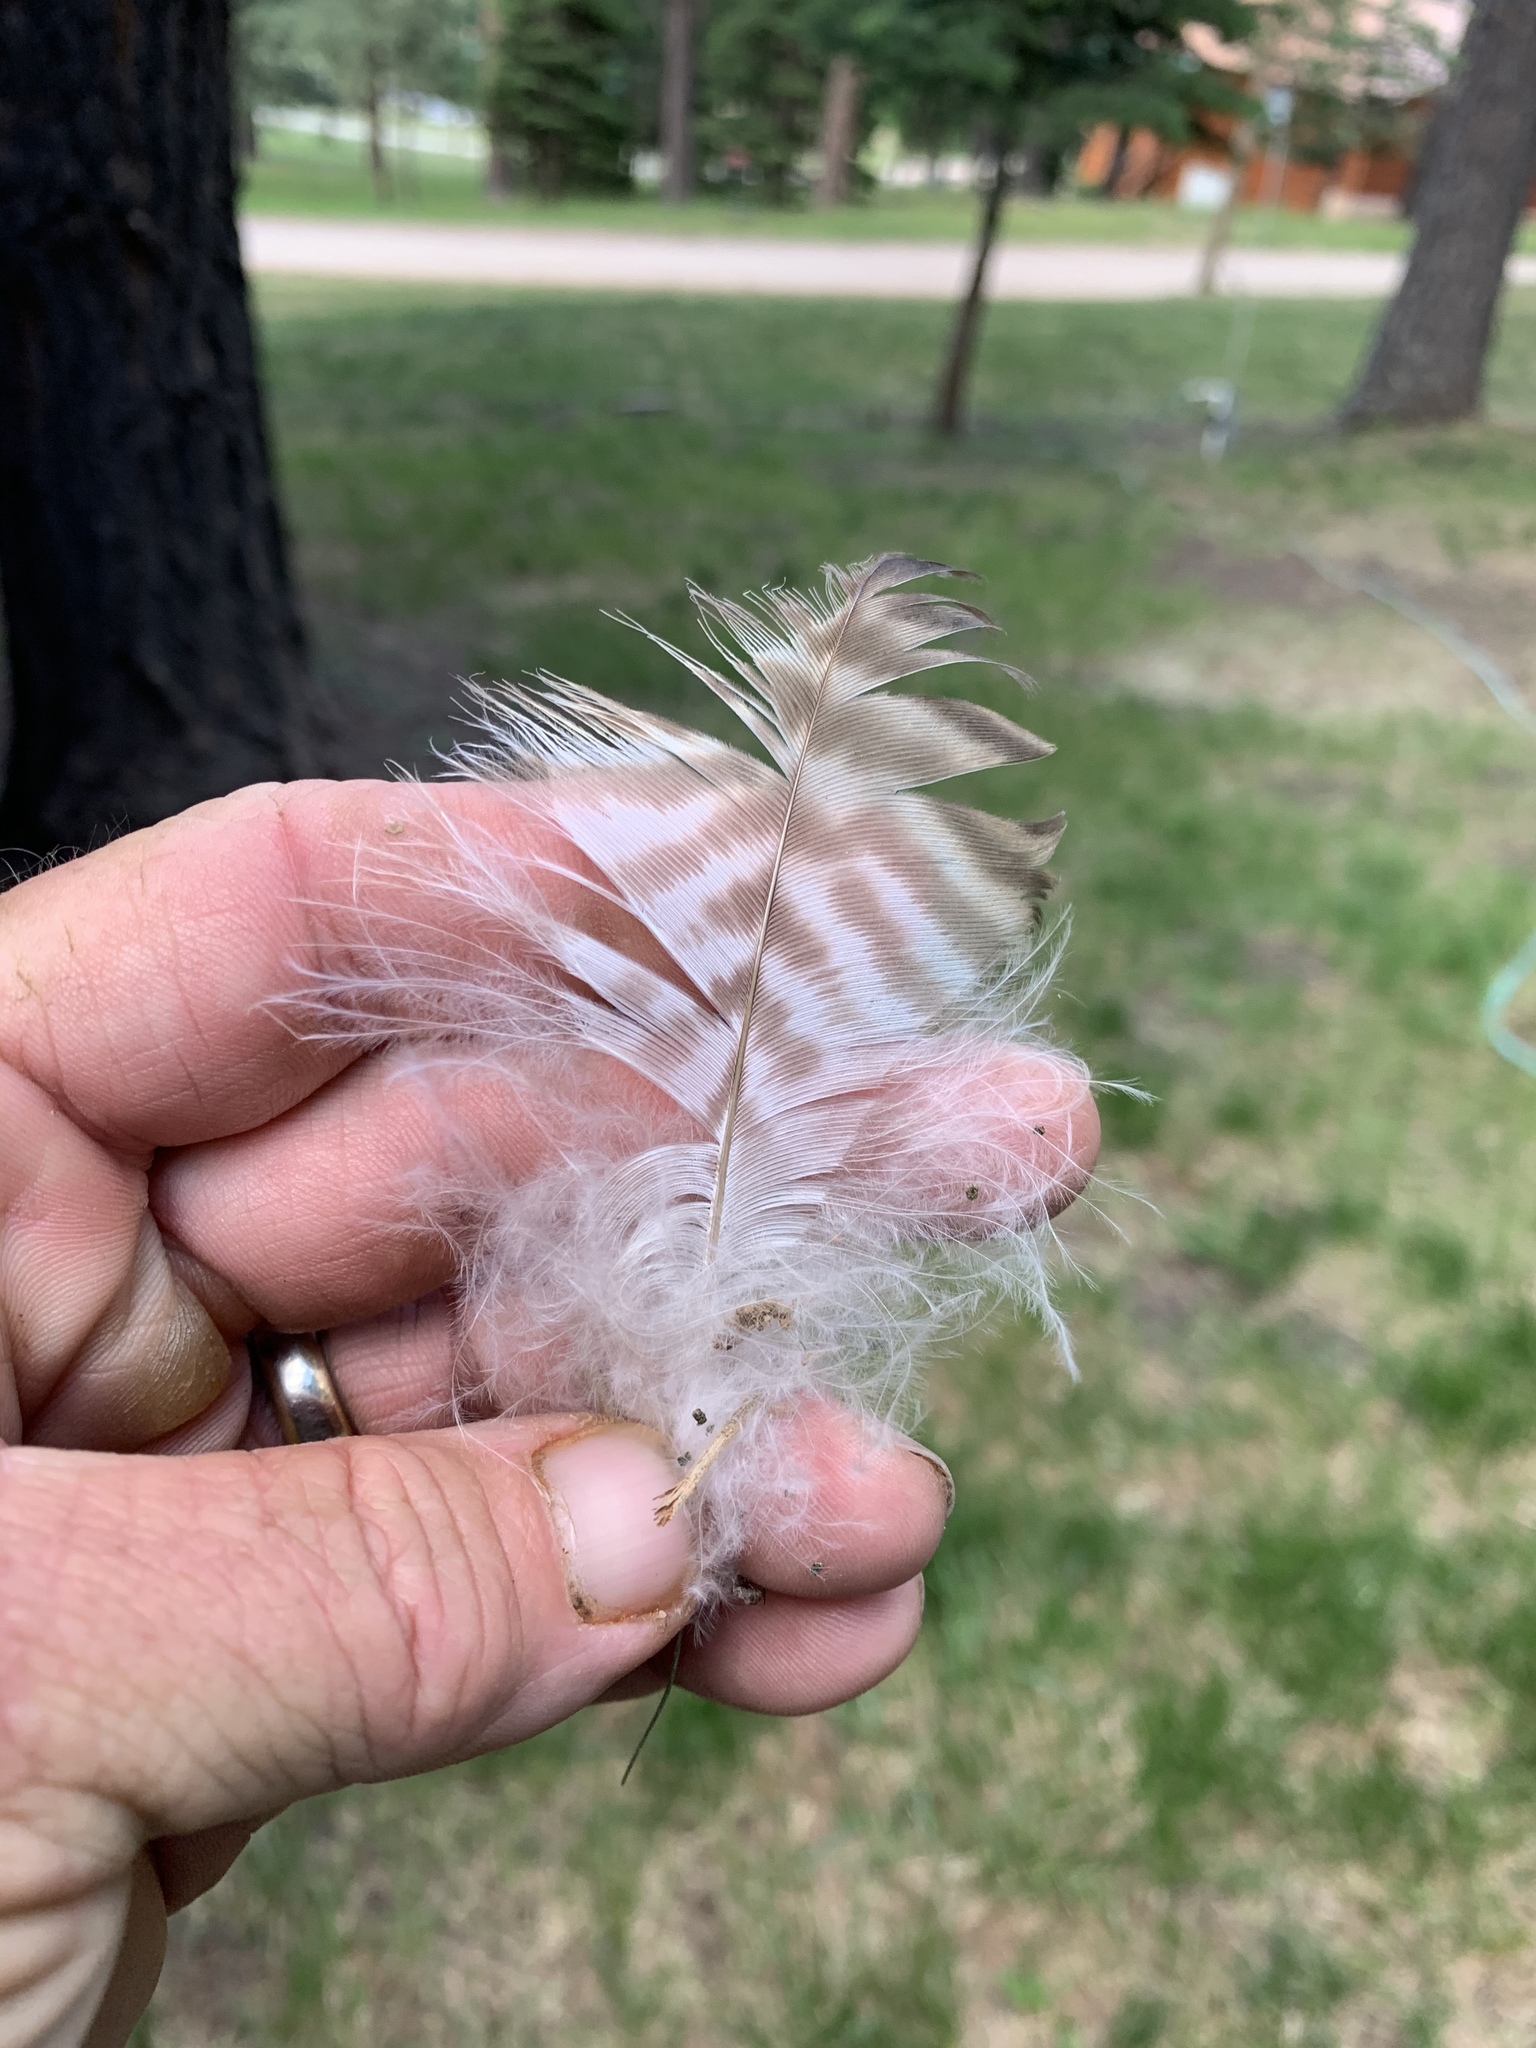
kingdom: Animalia
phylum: Chordata
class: Aves
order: Accipitriformes
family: Accipitridae
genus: Buteo
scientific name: Buteo jamaicensis
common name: Red-tailed hawk
